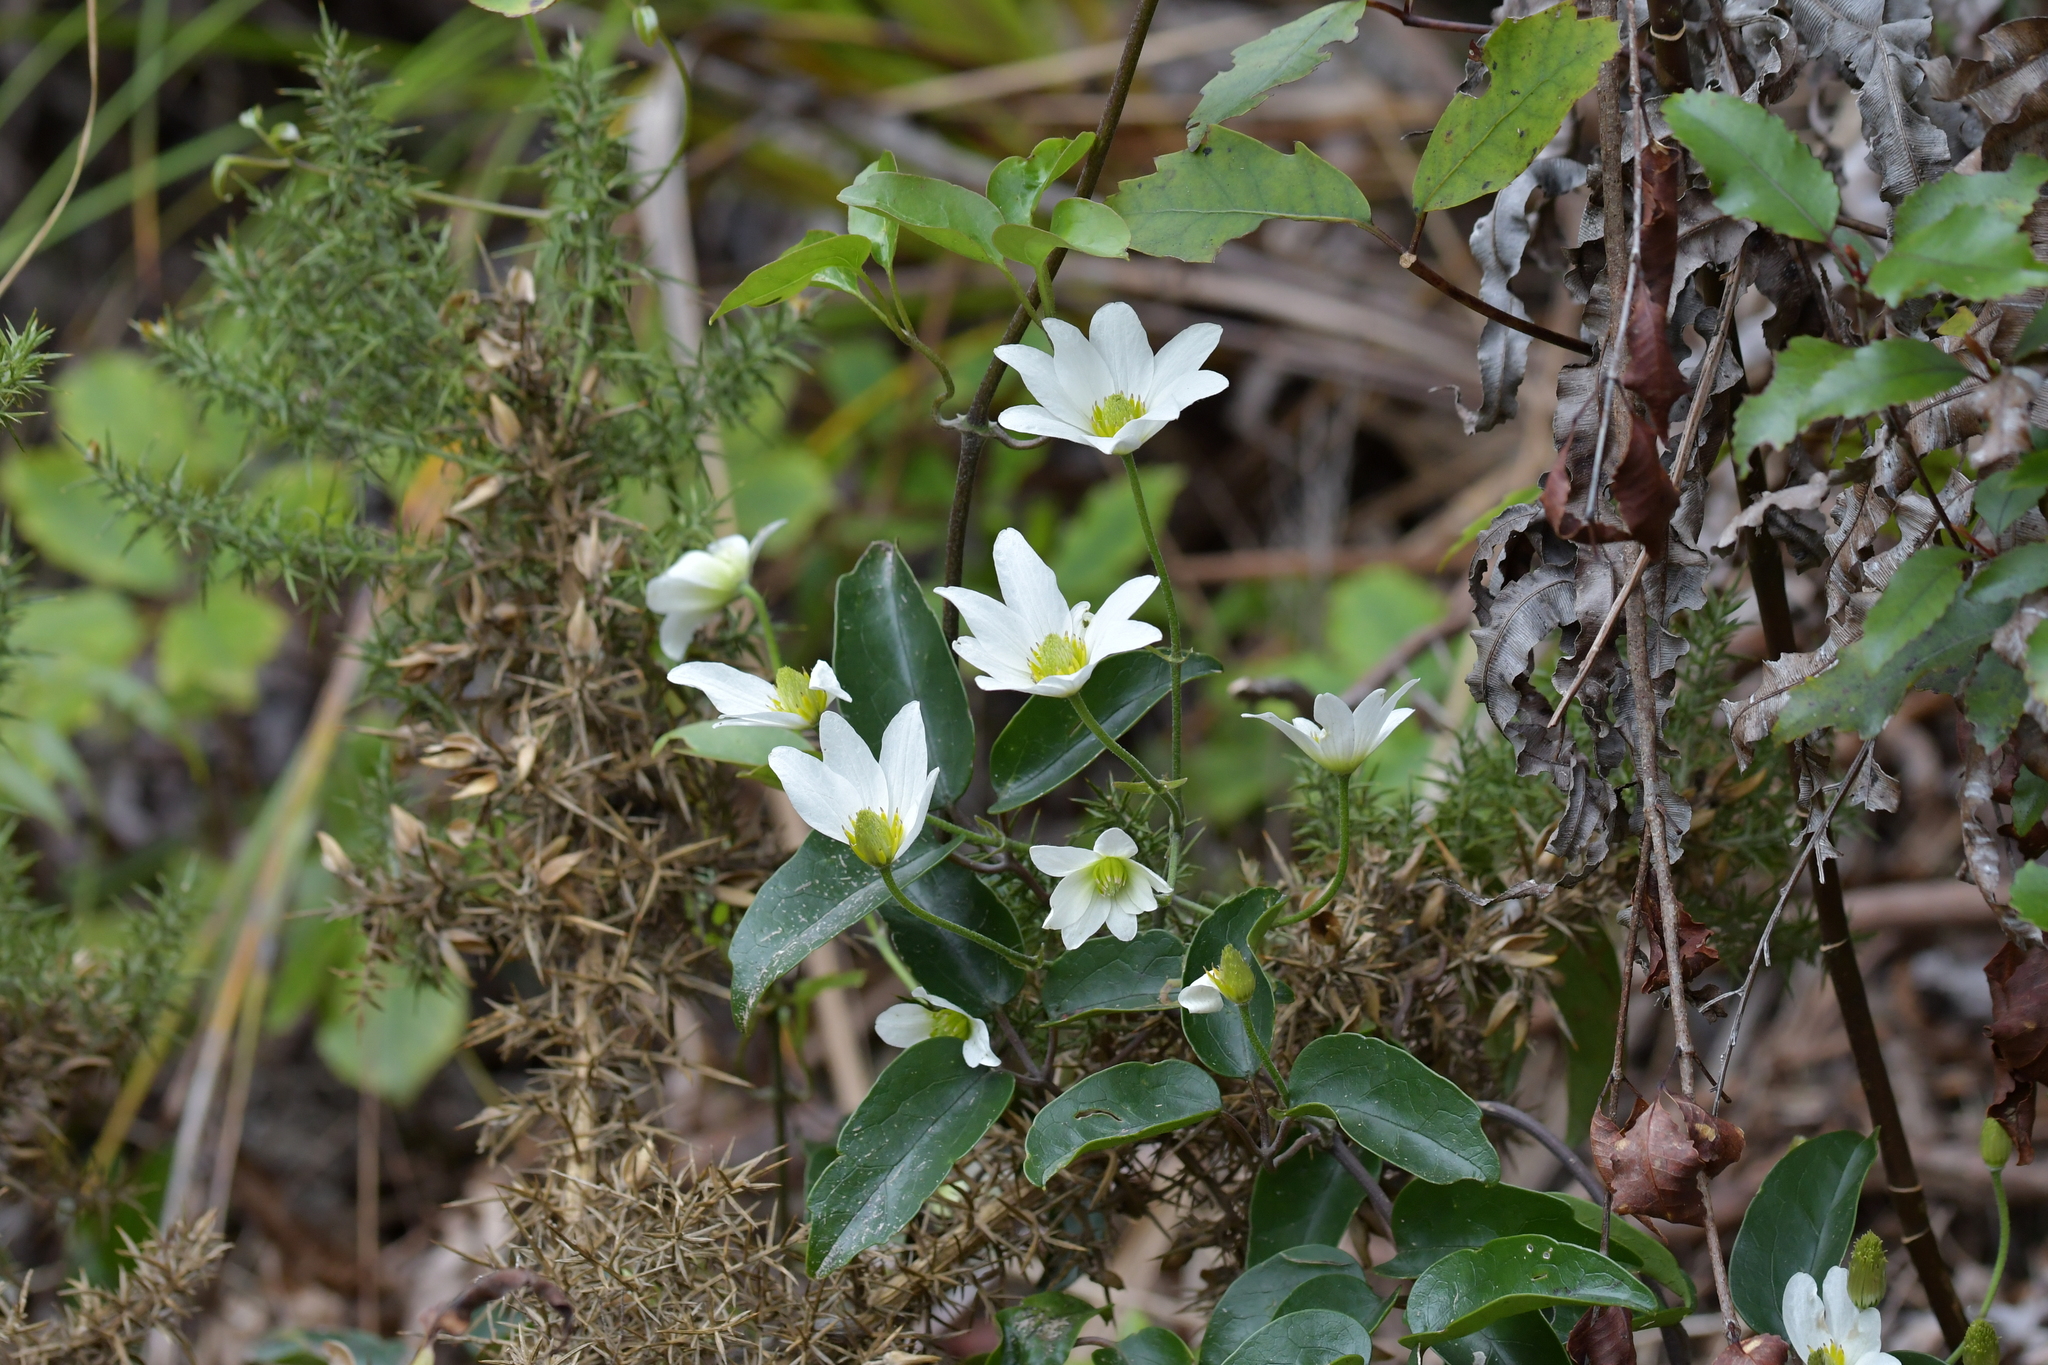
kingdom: Plantae
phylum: Tracheophyta
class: Magnoliopsida
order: Ranunculales
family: Ranunculaceae
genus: Clematis
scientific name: Clematis paniculata
